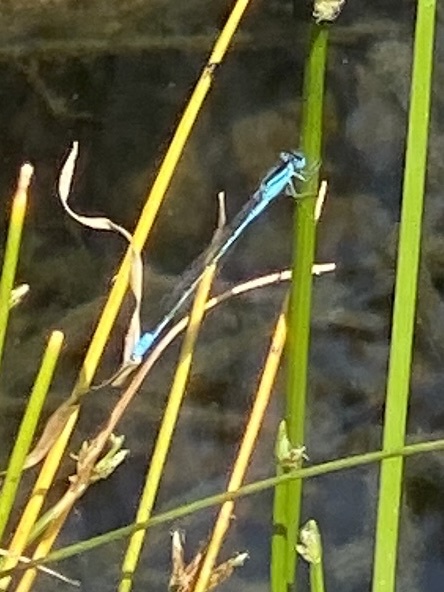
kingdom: Animalia
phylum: Arthropoda
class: Insecta
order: Odonata
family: Coenagrionidae
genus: Africallagma
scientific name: Africallagma glaucum
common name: Swamp bluet
